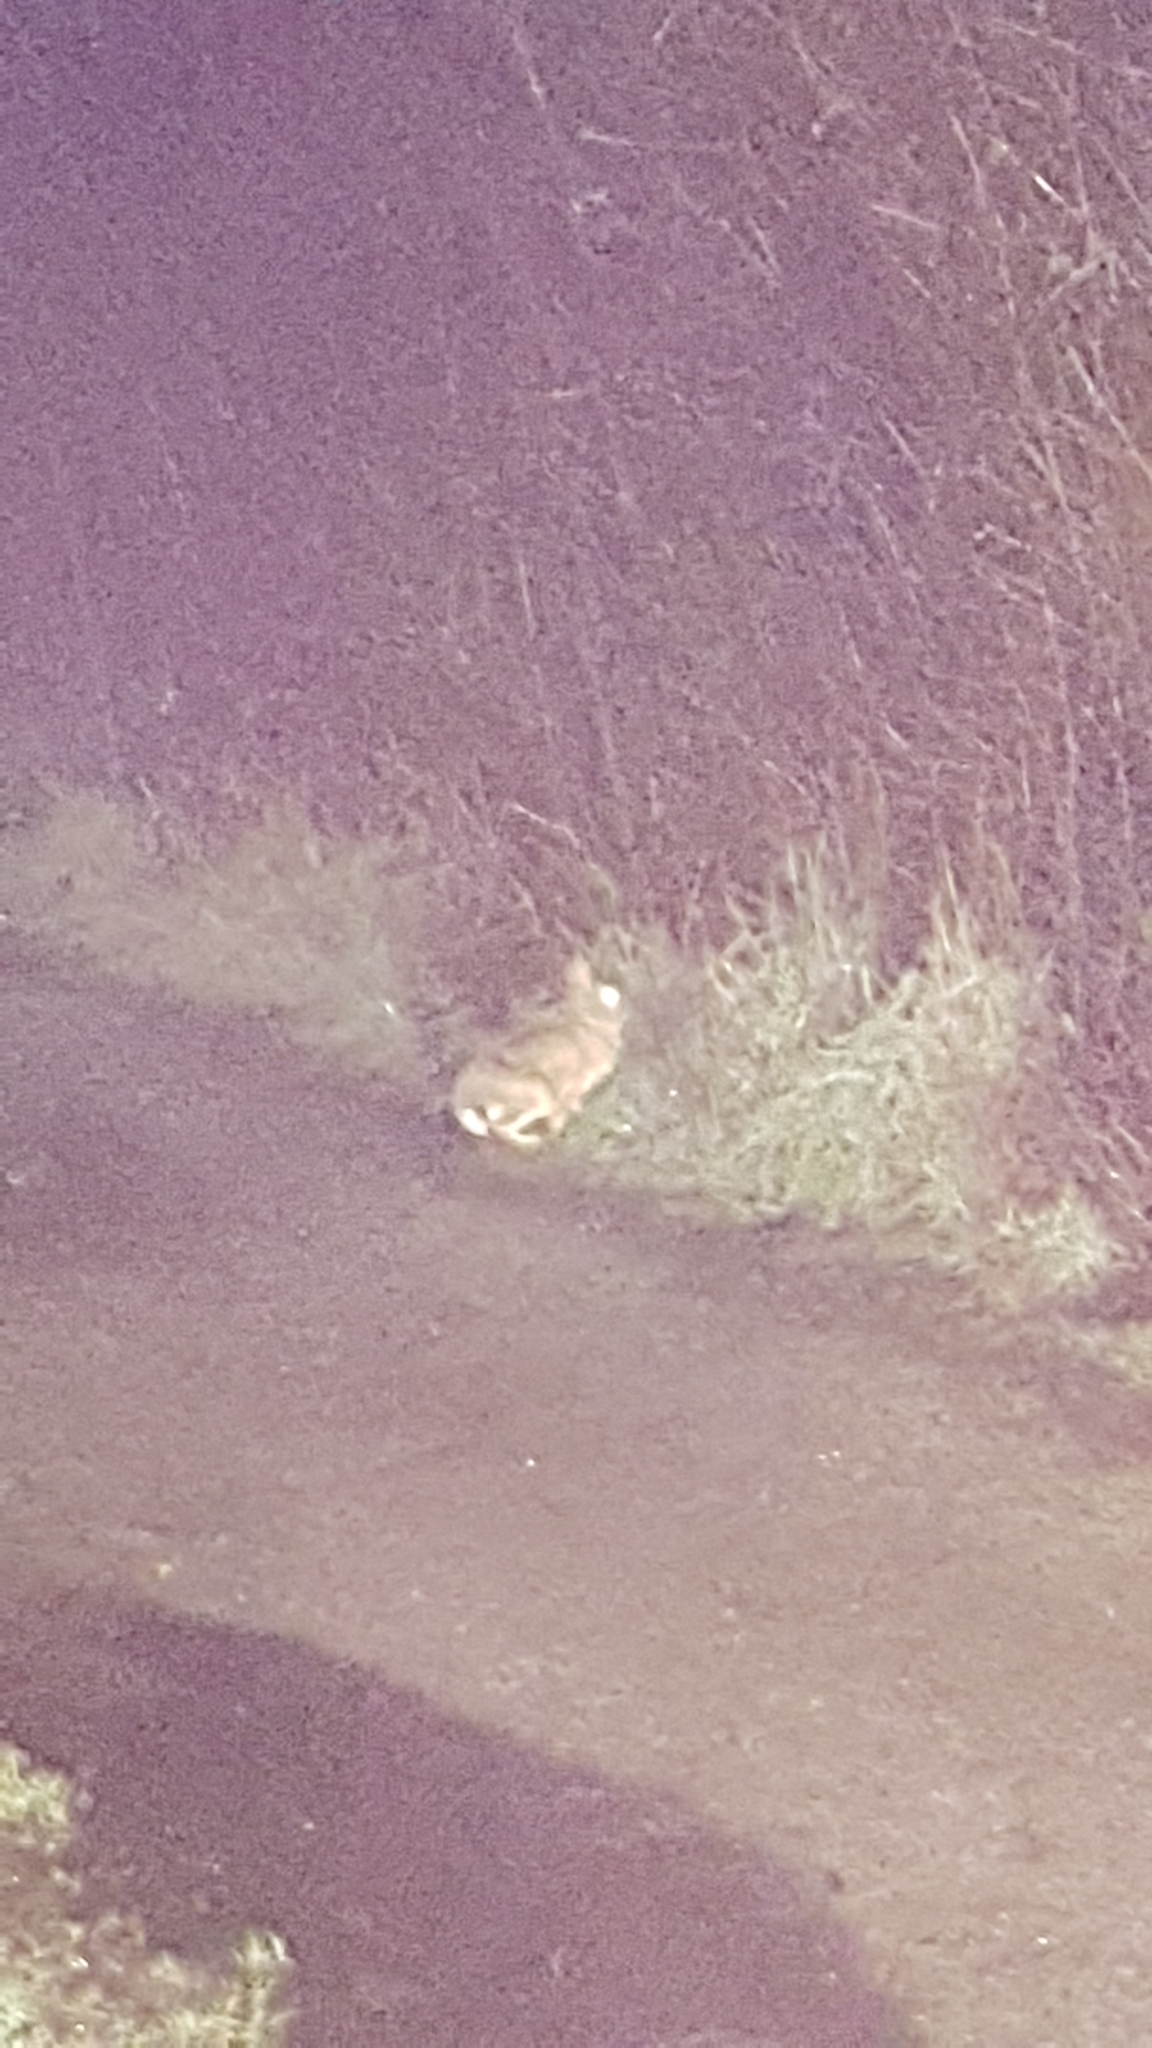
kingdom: Animalia
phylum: Chordata
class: Mammalia
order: Lagomorpha
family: Leporidae
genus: Sylvilagus
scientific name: Sylvilagus floridanus
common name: Eastern cottontail
